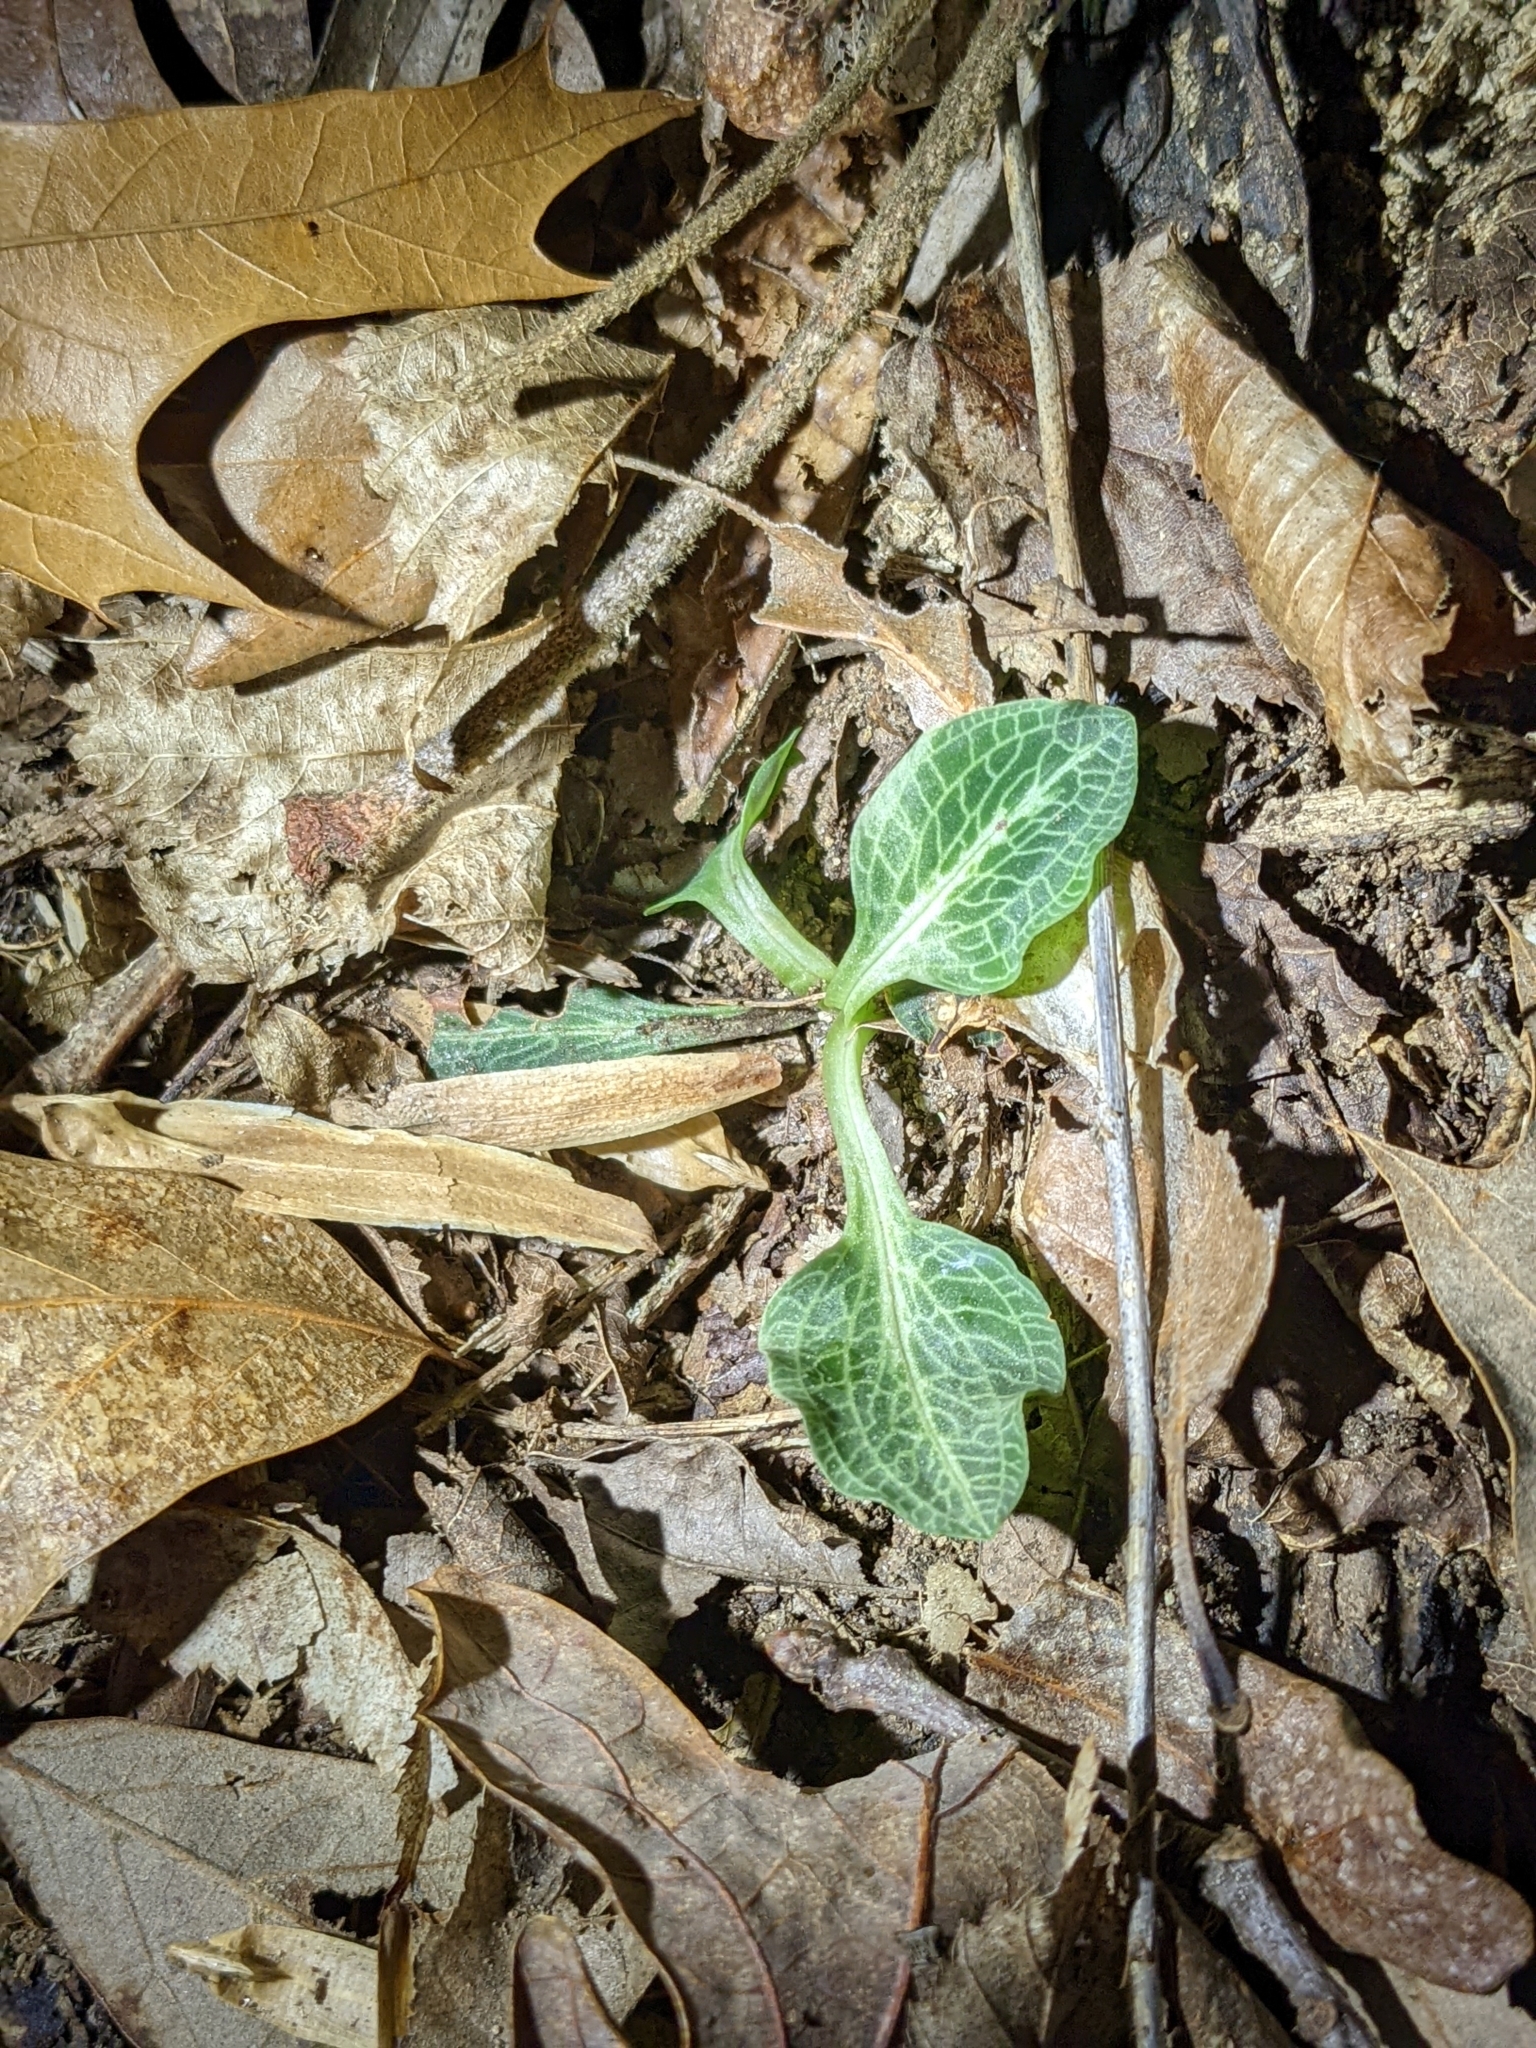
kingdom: Plantae
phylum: Tracheophyta
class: Liliopsida
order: Asparagales
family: Orchidaceae
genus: Goodyera
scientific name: Goodyera pubescens
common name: Downy rattlesnake-plantain
